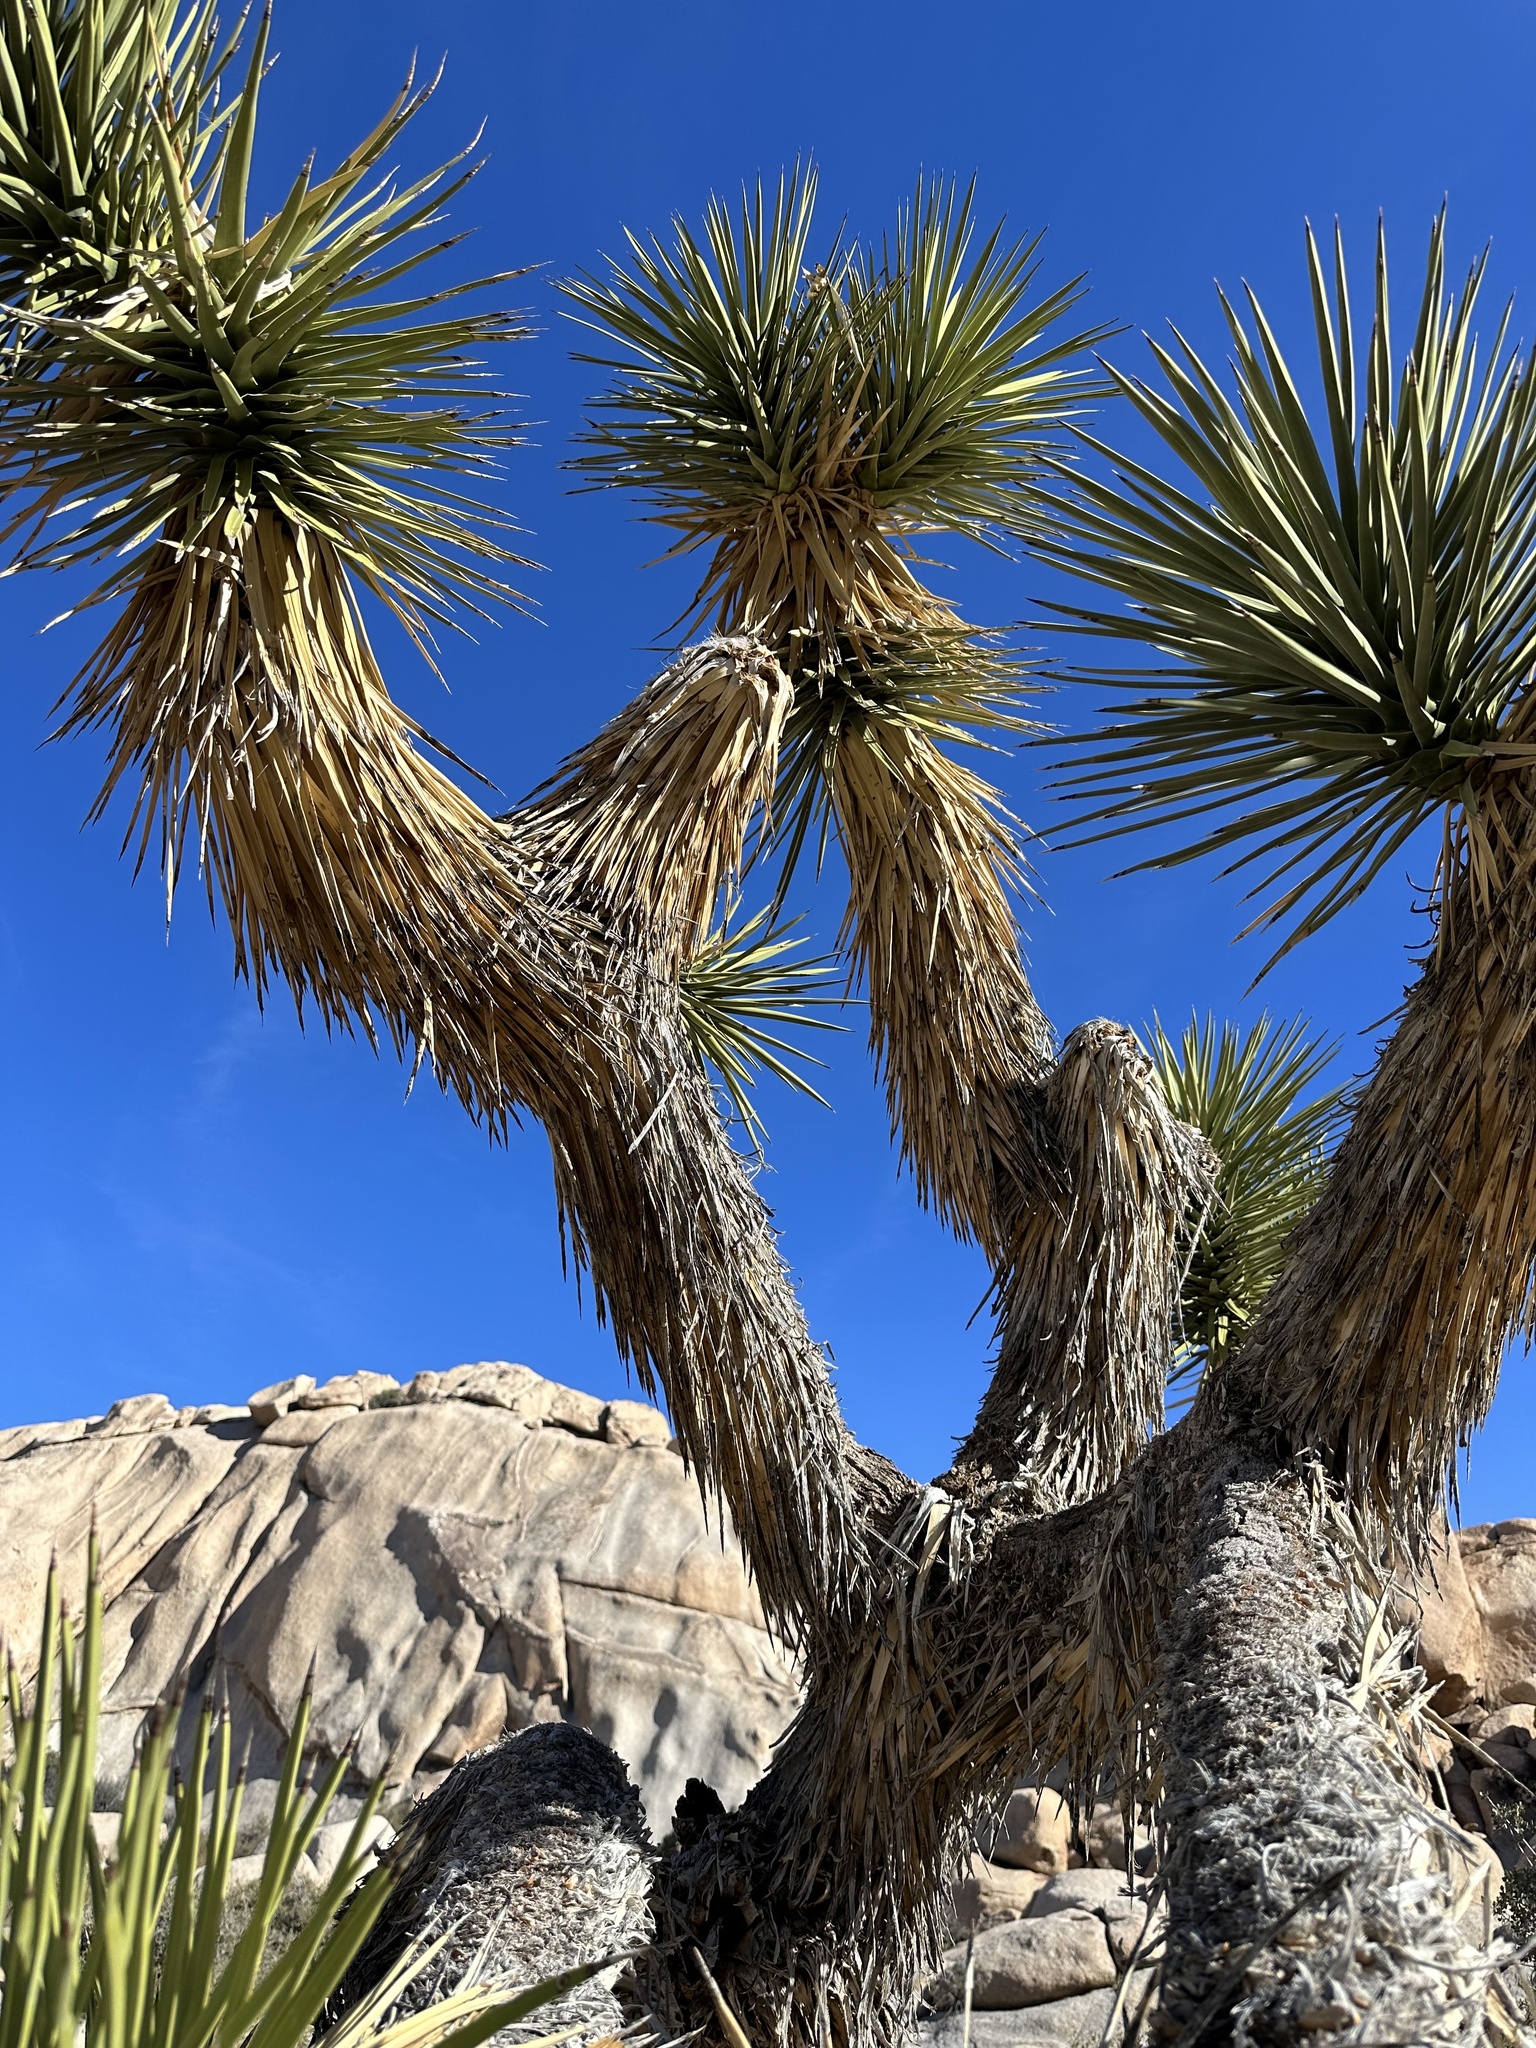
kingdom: Plantae
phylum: Tracheophyta
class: Liliopsida
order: Asparagales
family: Asparagaceae
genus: Yucca
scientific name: Yucca brevifolia
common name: Joshua tree
